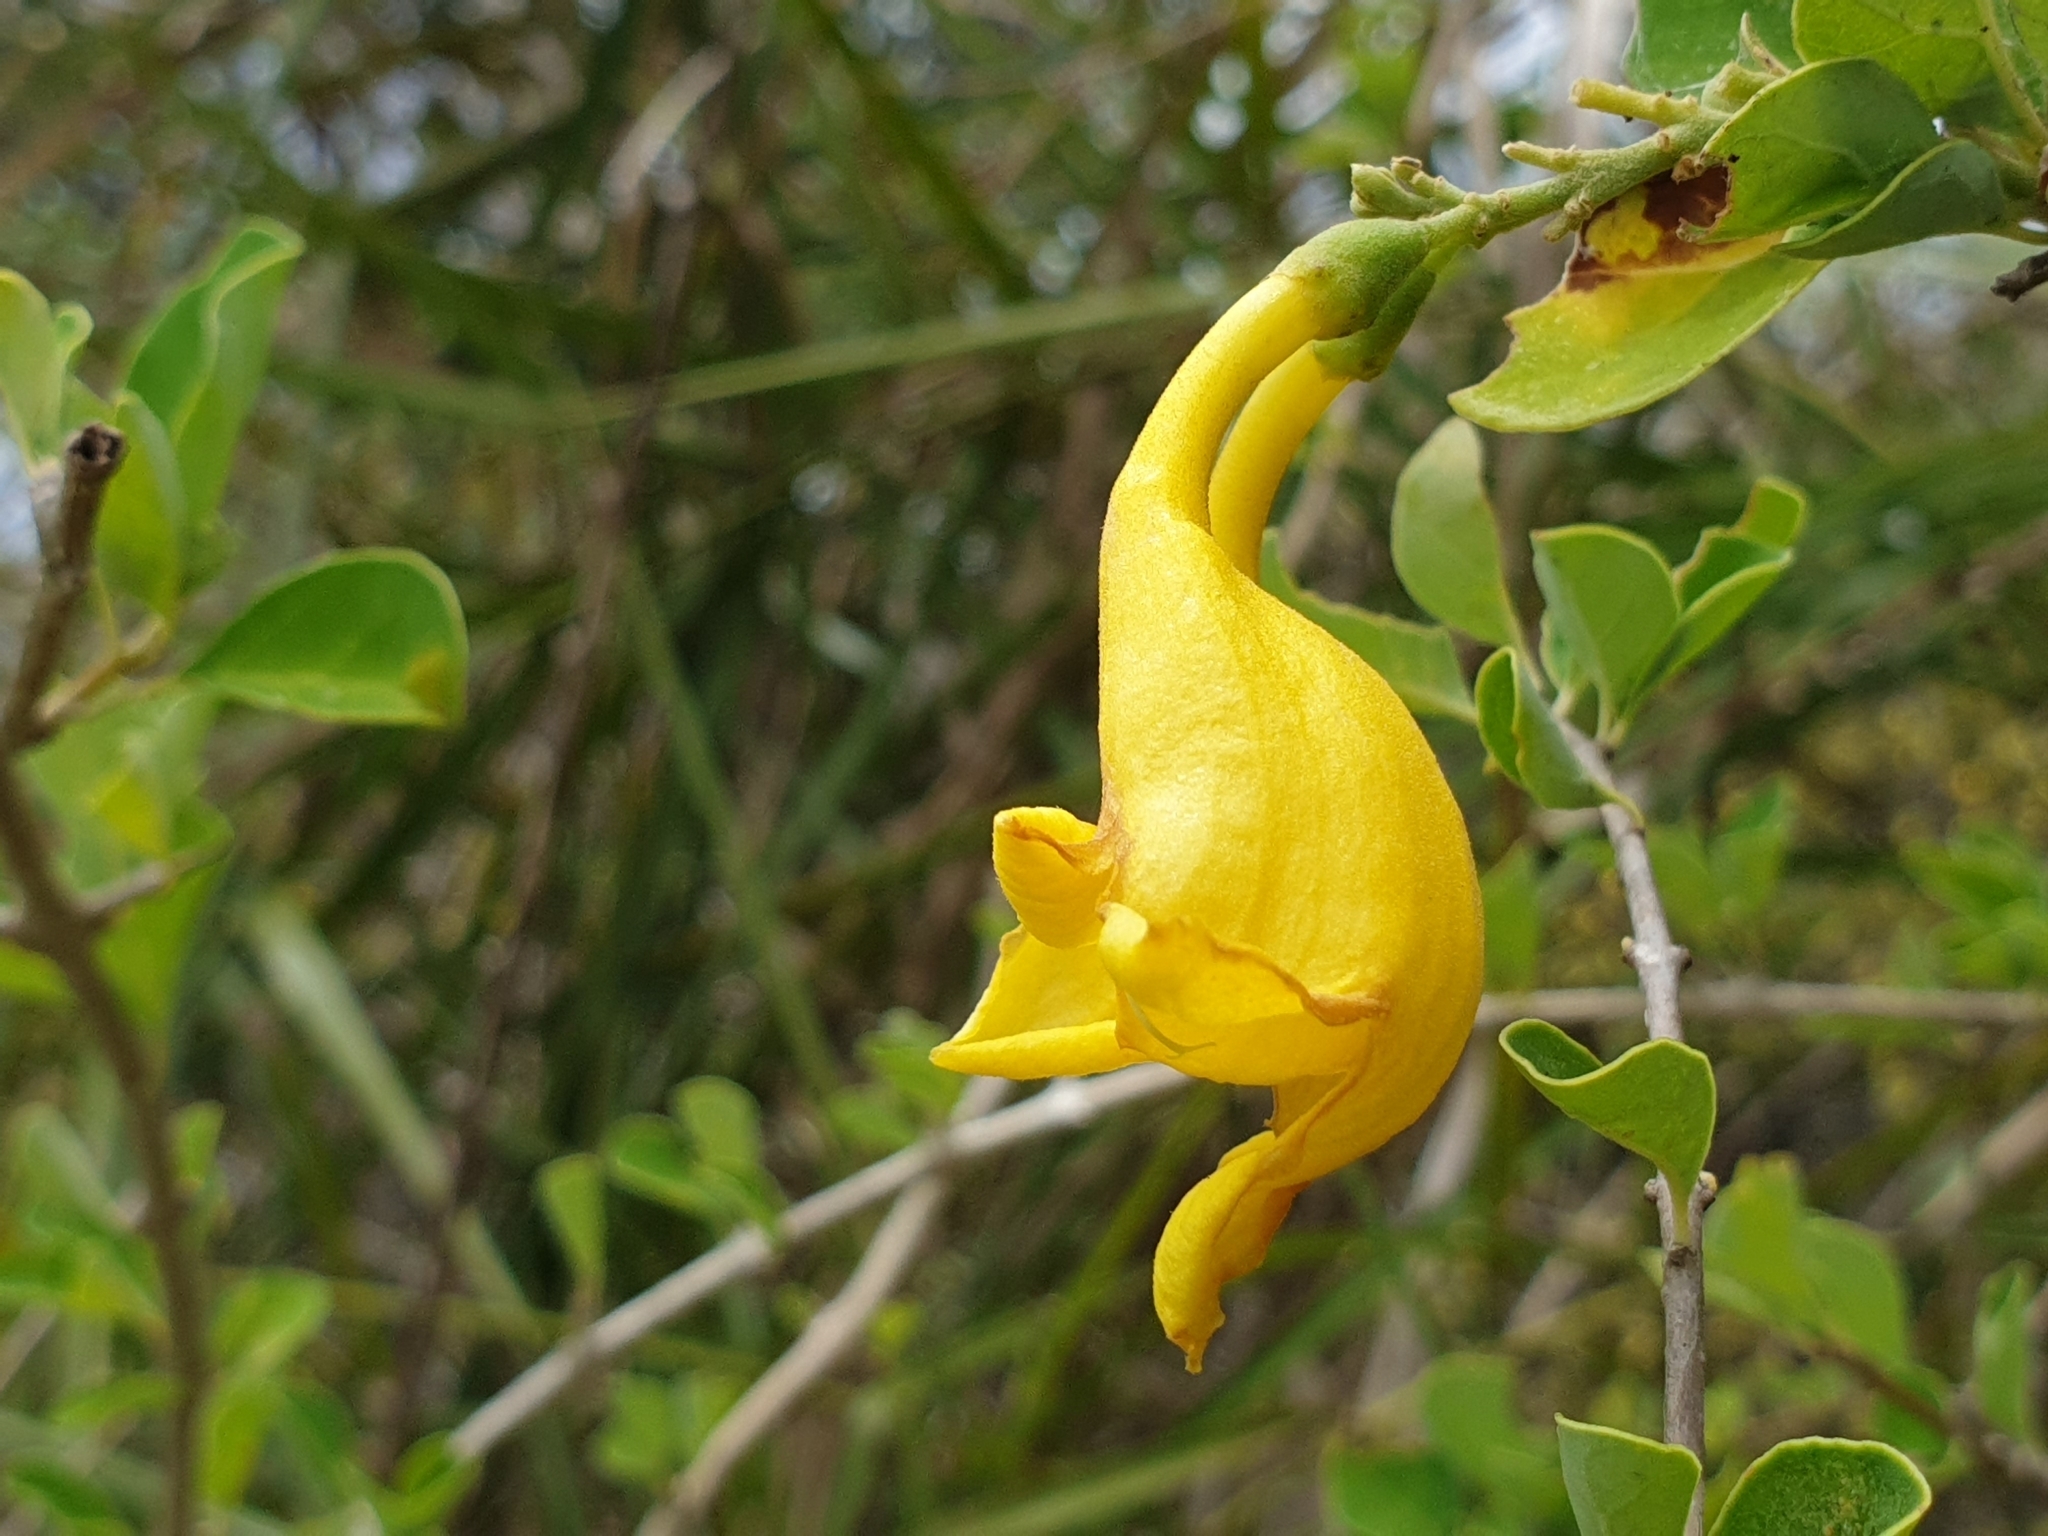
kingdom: Plantae
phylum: Tracheophyta
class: Magnoliopsida
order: Lamiales
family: Lamiaceae
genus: Gmelina
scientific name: Gmelina asiatica
